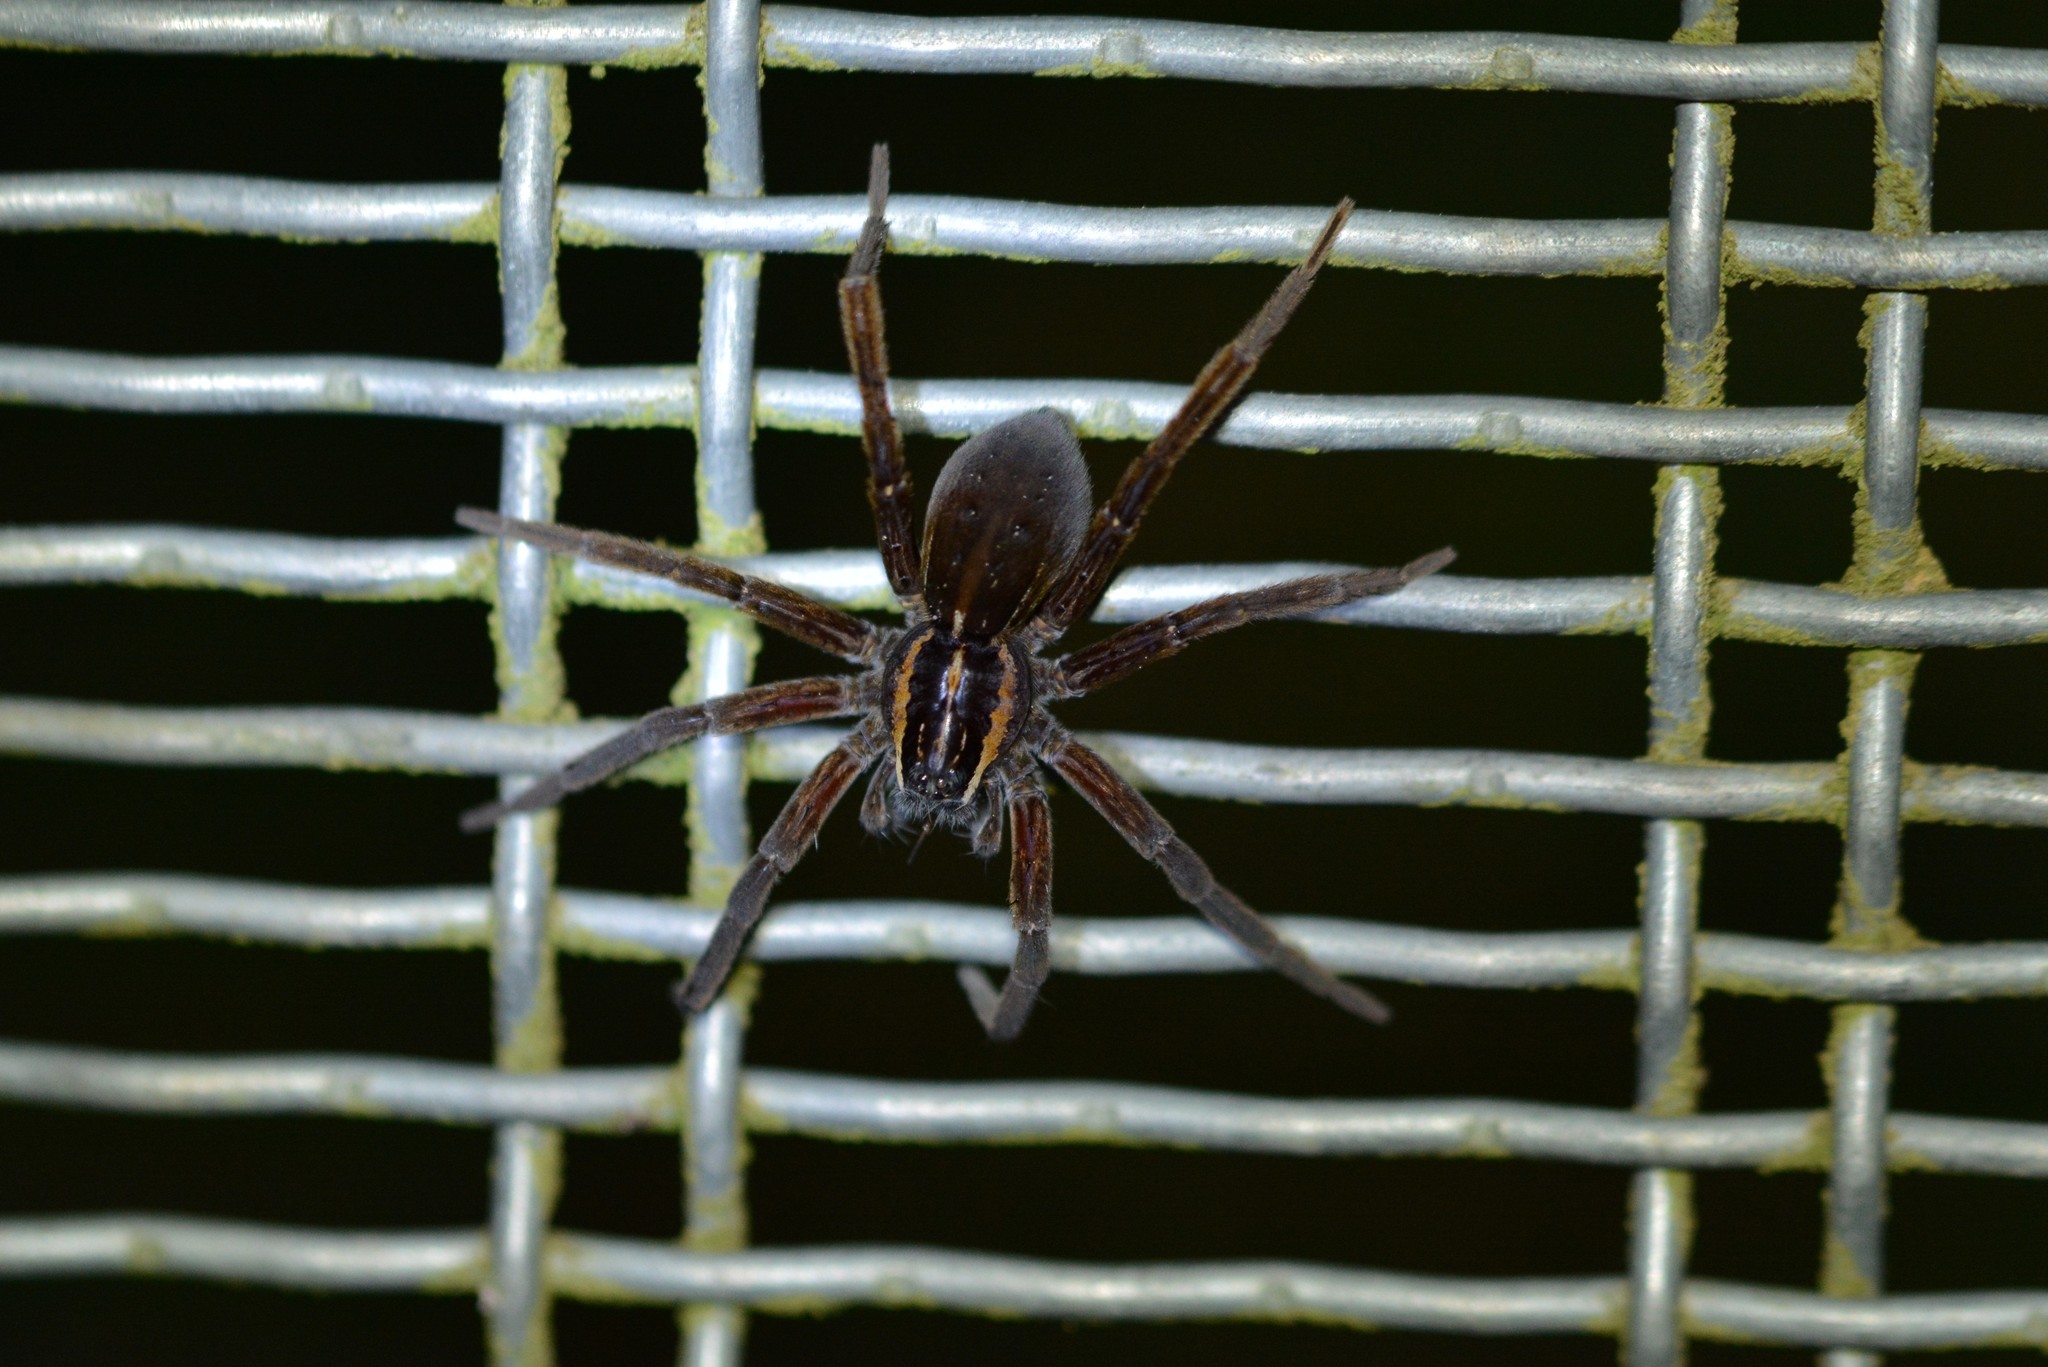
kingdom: Animalia
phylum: Arthropoda
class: Arachnida
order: Araneae
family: Pisauridae
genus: Dolomedes
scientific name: Dolomedes minor
